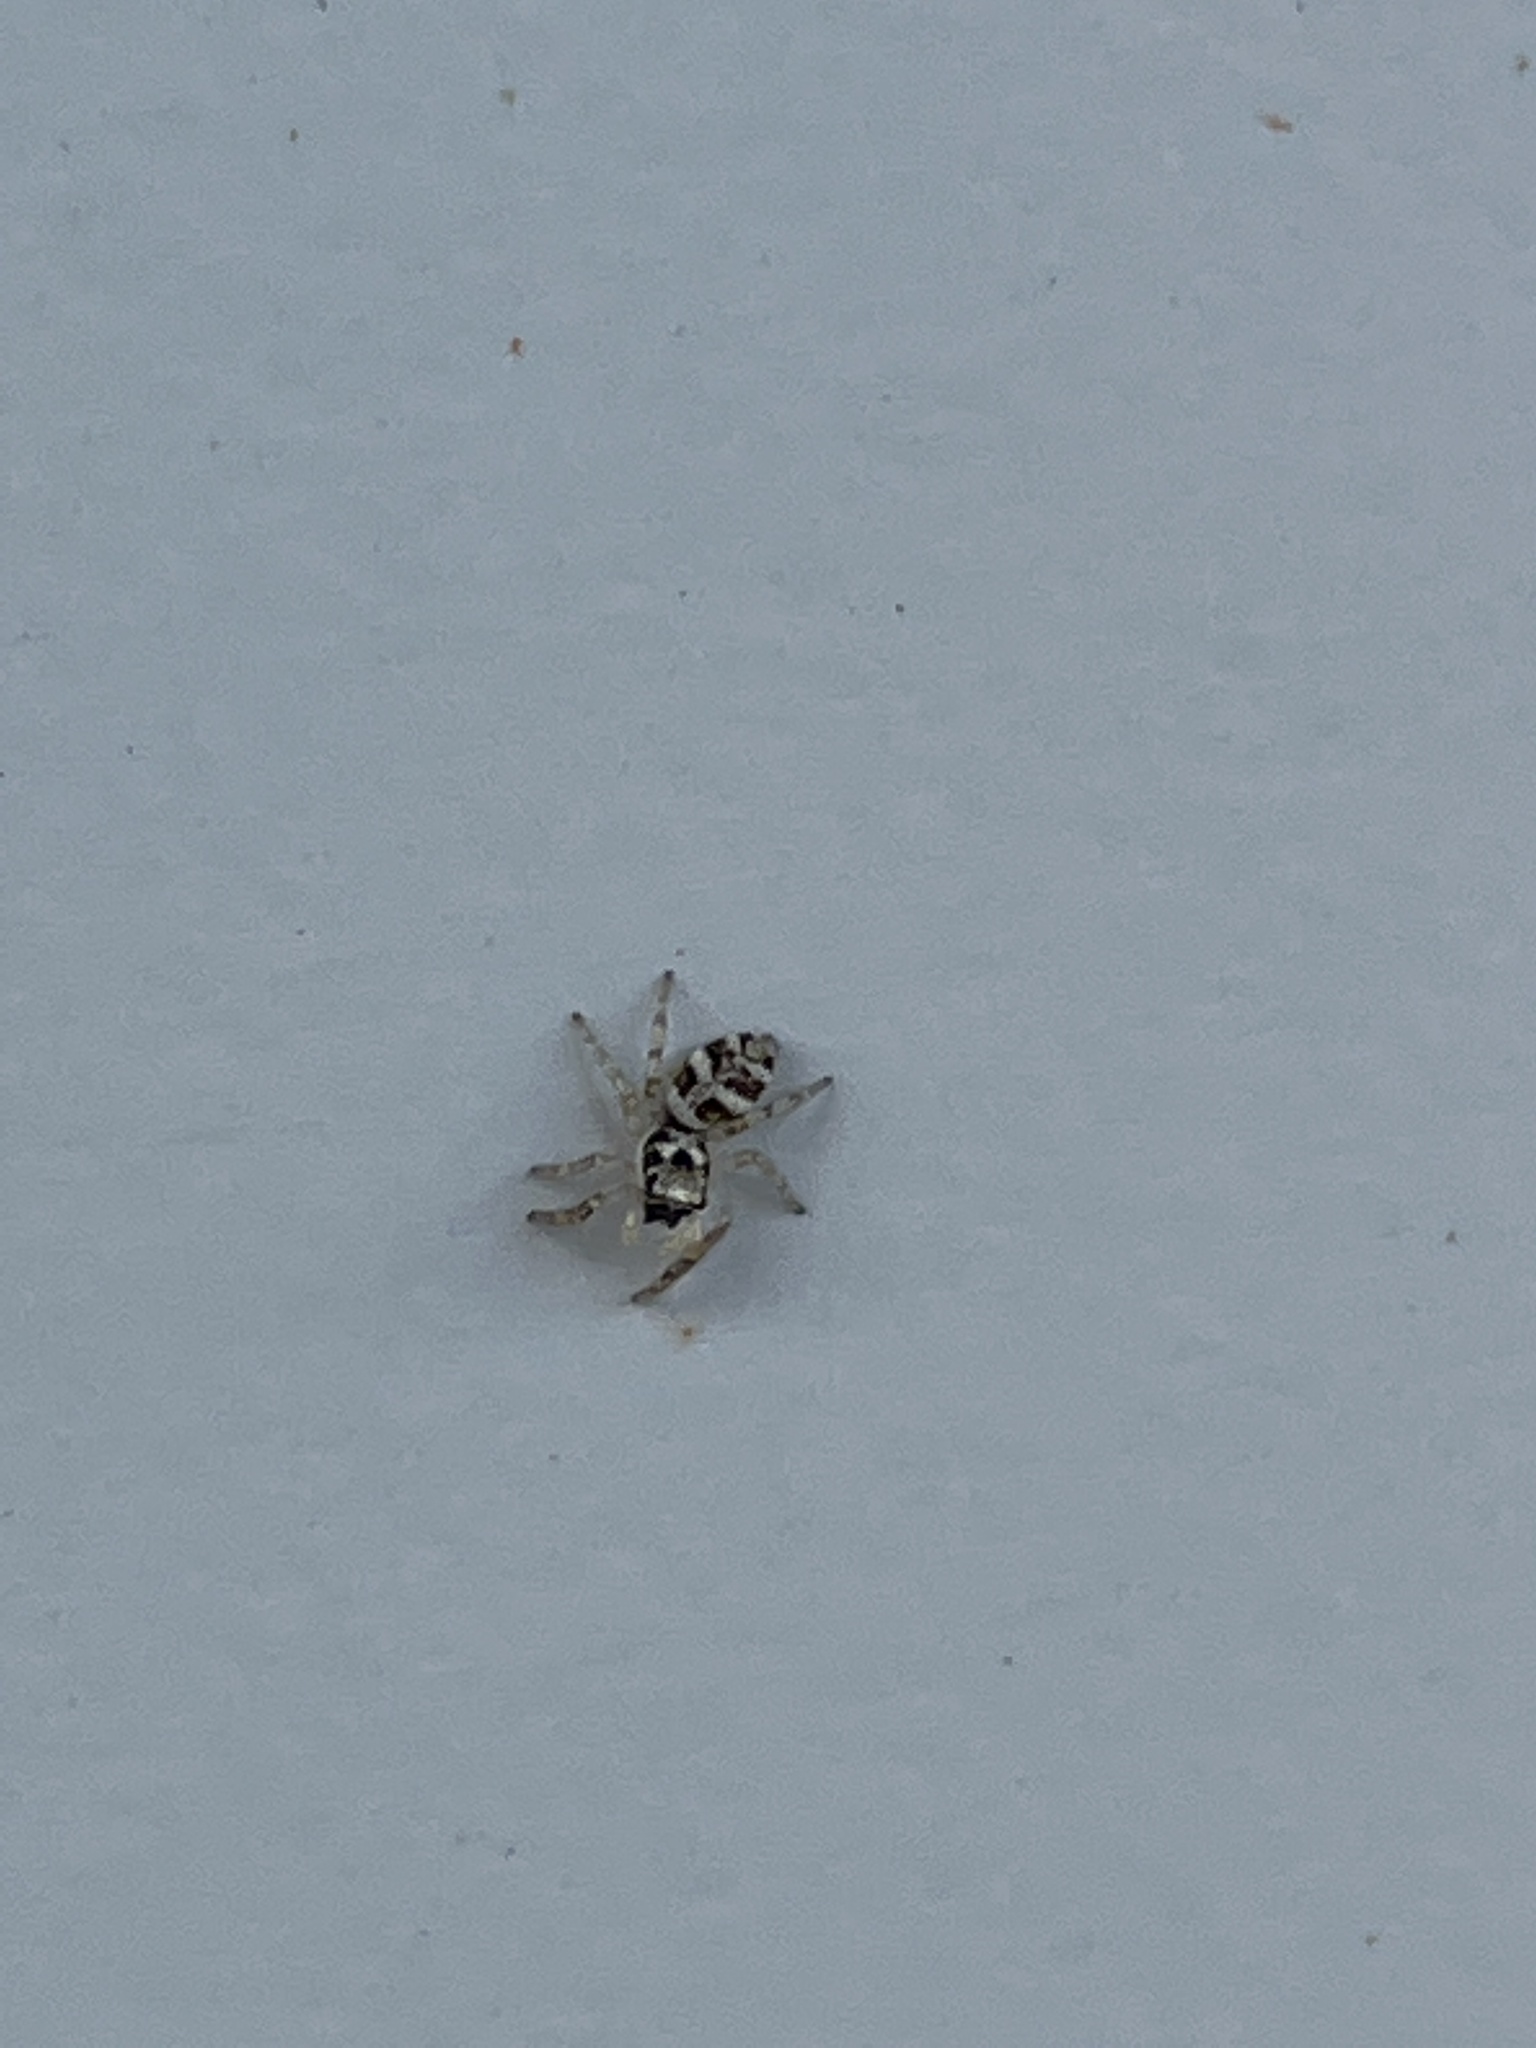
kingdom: Animalia
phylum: Arthropoda
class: Arachnida
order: Araneae
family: Salticidae
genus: Salticus
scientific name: Salticus scenicus
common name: Zebra jumper
